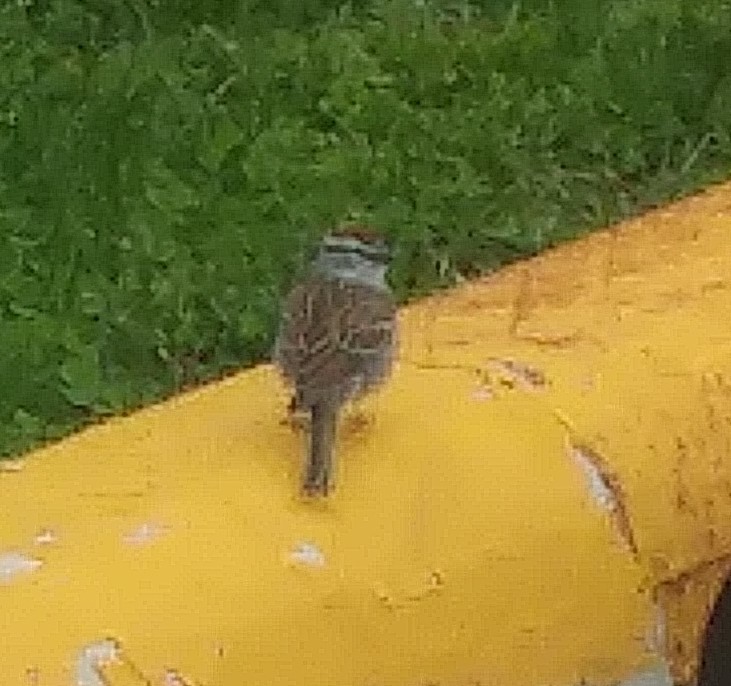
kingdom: Animalia
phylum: Chordata
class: Aves
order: Passeriformes
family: Passerellidae
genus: Spizella
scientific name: Spizella passerina
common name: Chipping sparrow
